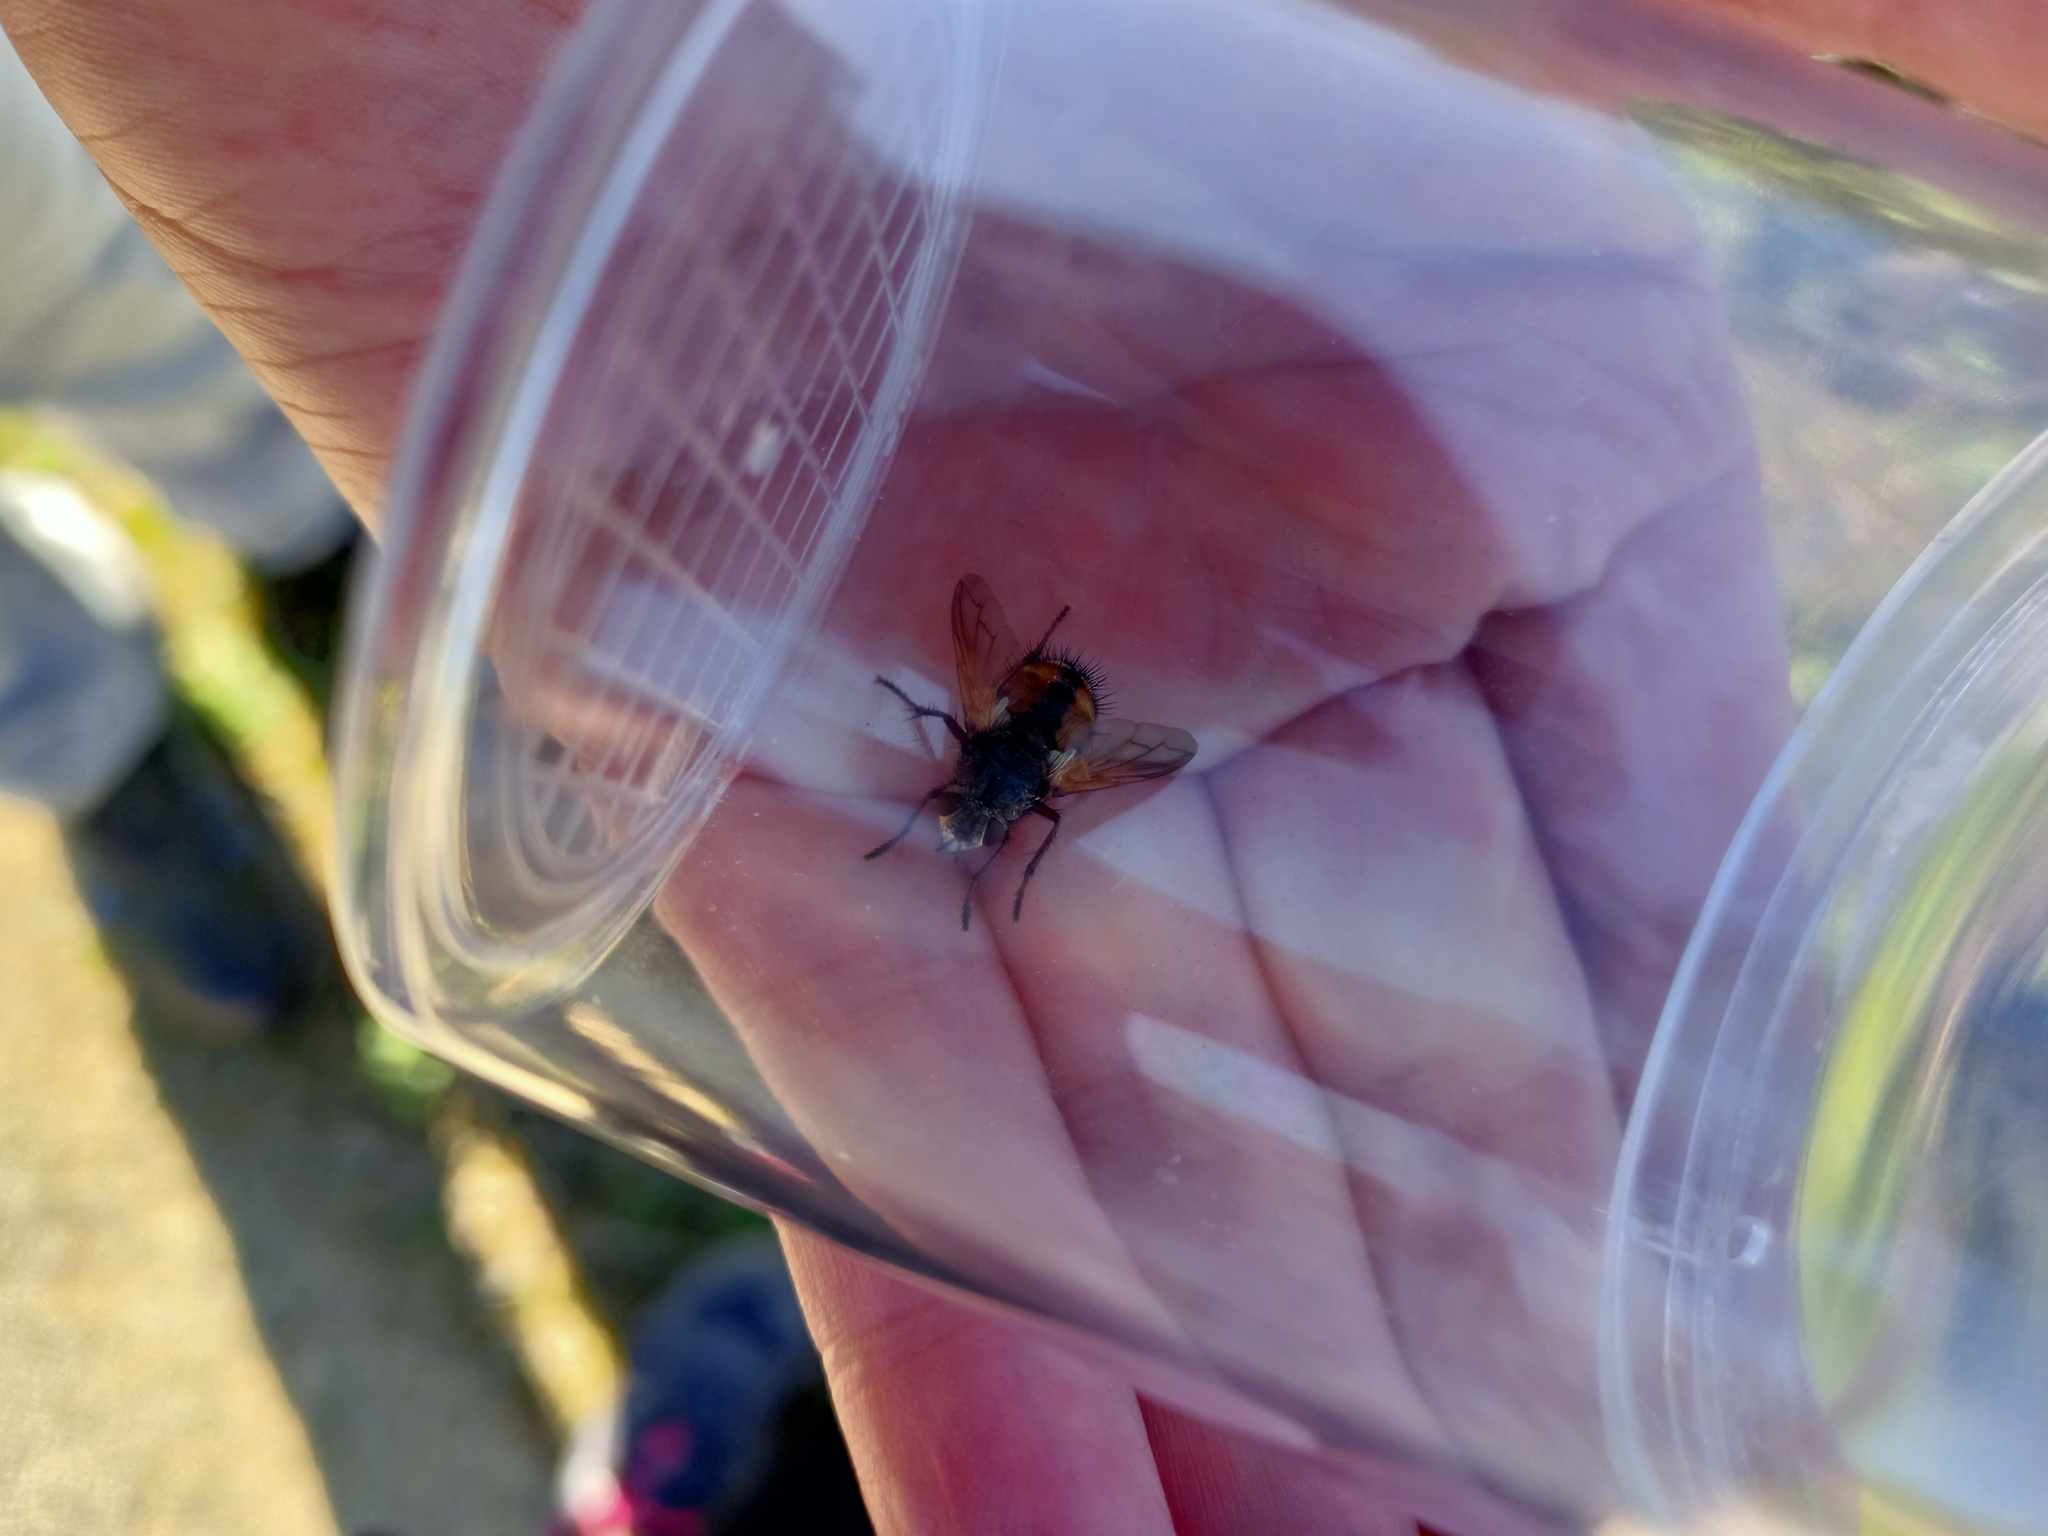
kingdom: Animalia
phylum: Arthropoda
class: Insecta
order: Diptera
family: Tachinidae
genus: Tachina
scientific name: Tachina fera
